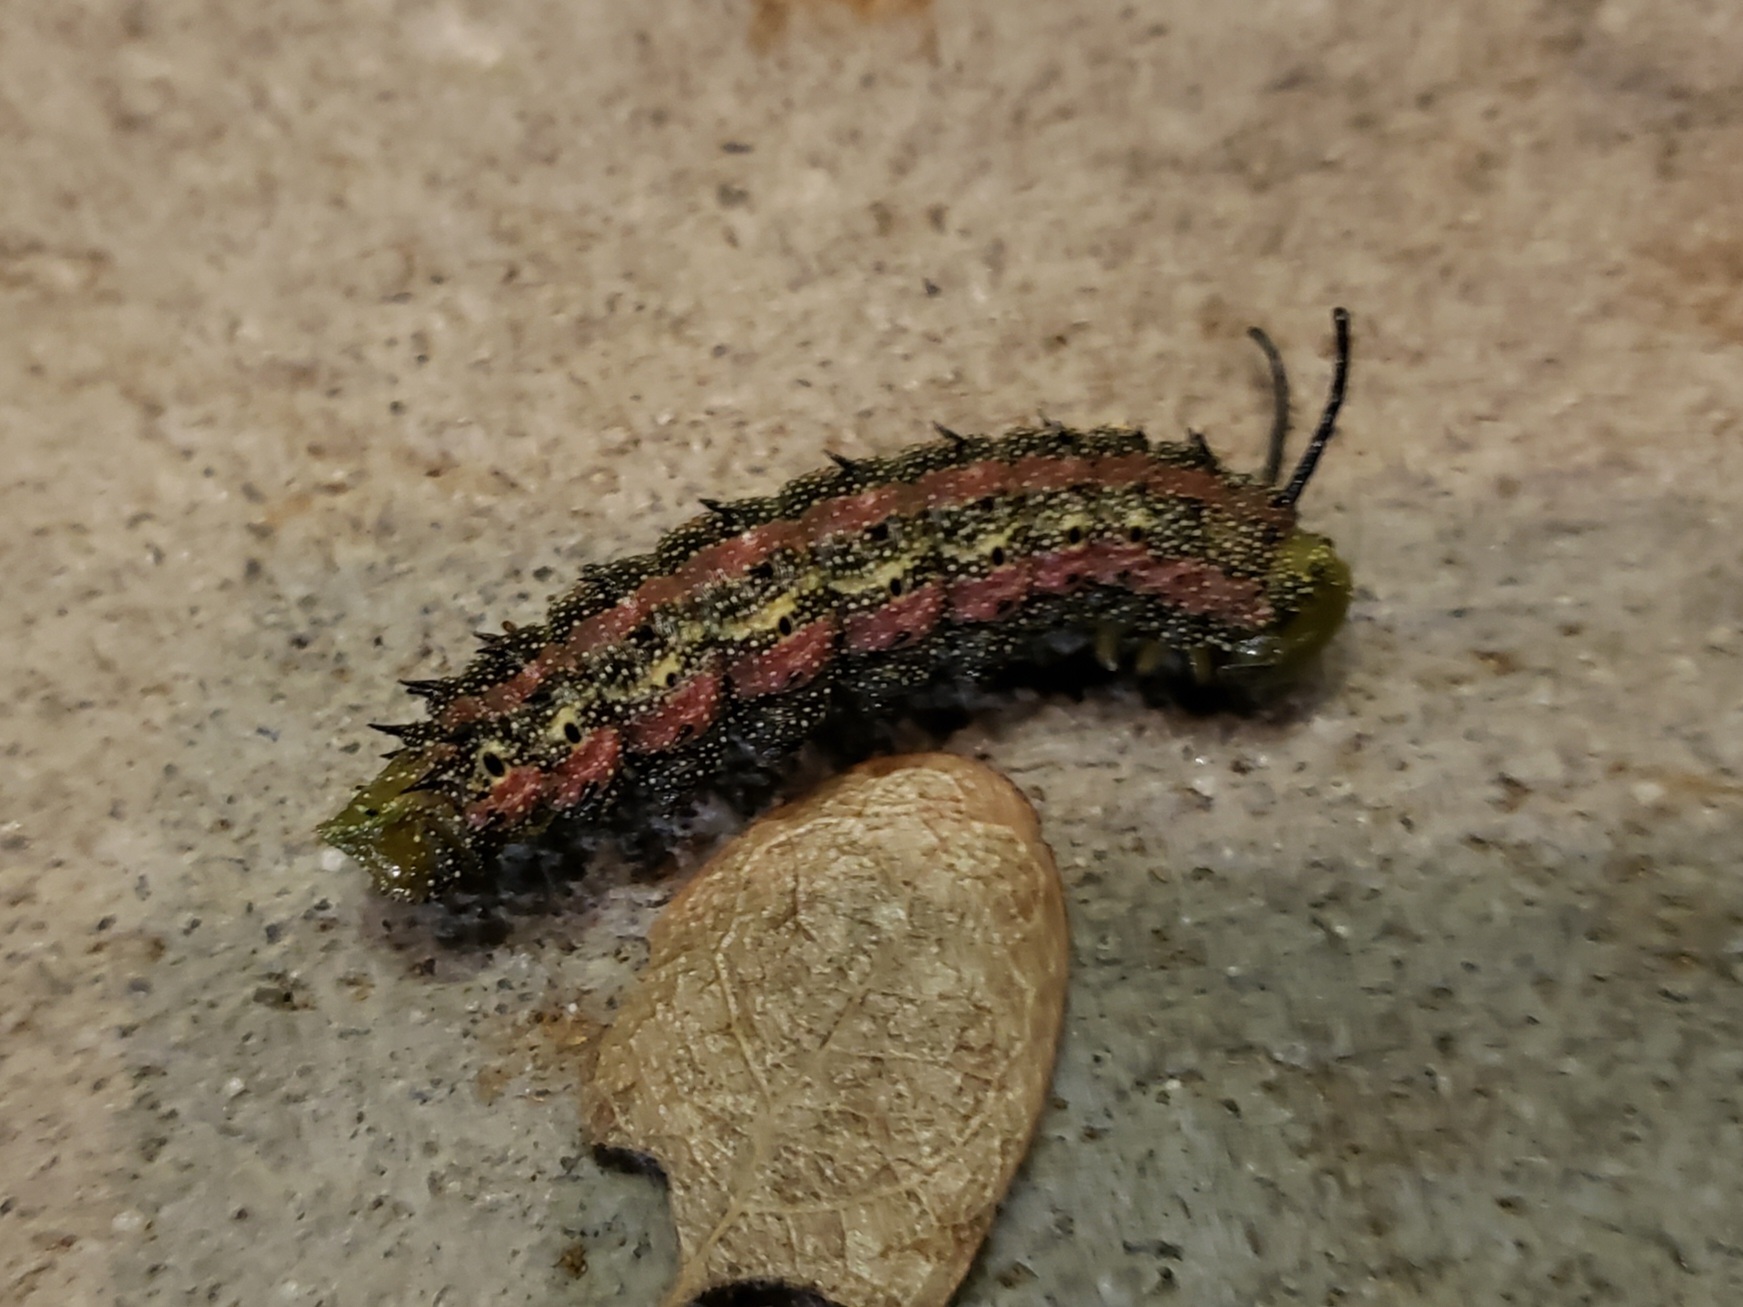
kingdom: Animalia
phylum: Arthropoda
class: Insecta
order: Lepidoptera
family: Saturniidae
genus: Anisota
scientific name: Anisota virginiensis
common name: Pink striped oakworm moth
